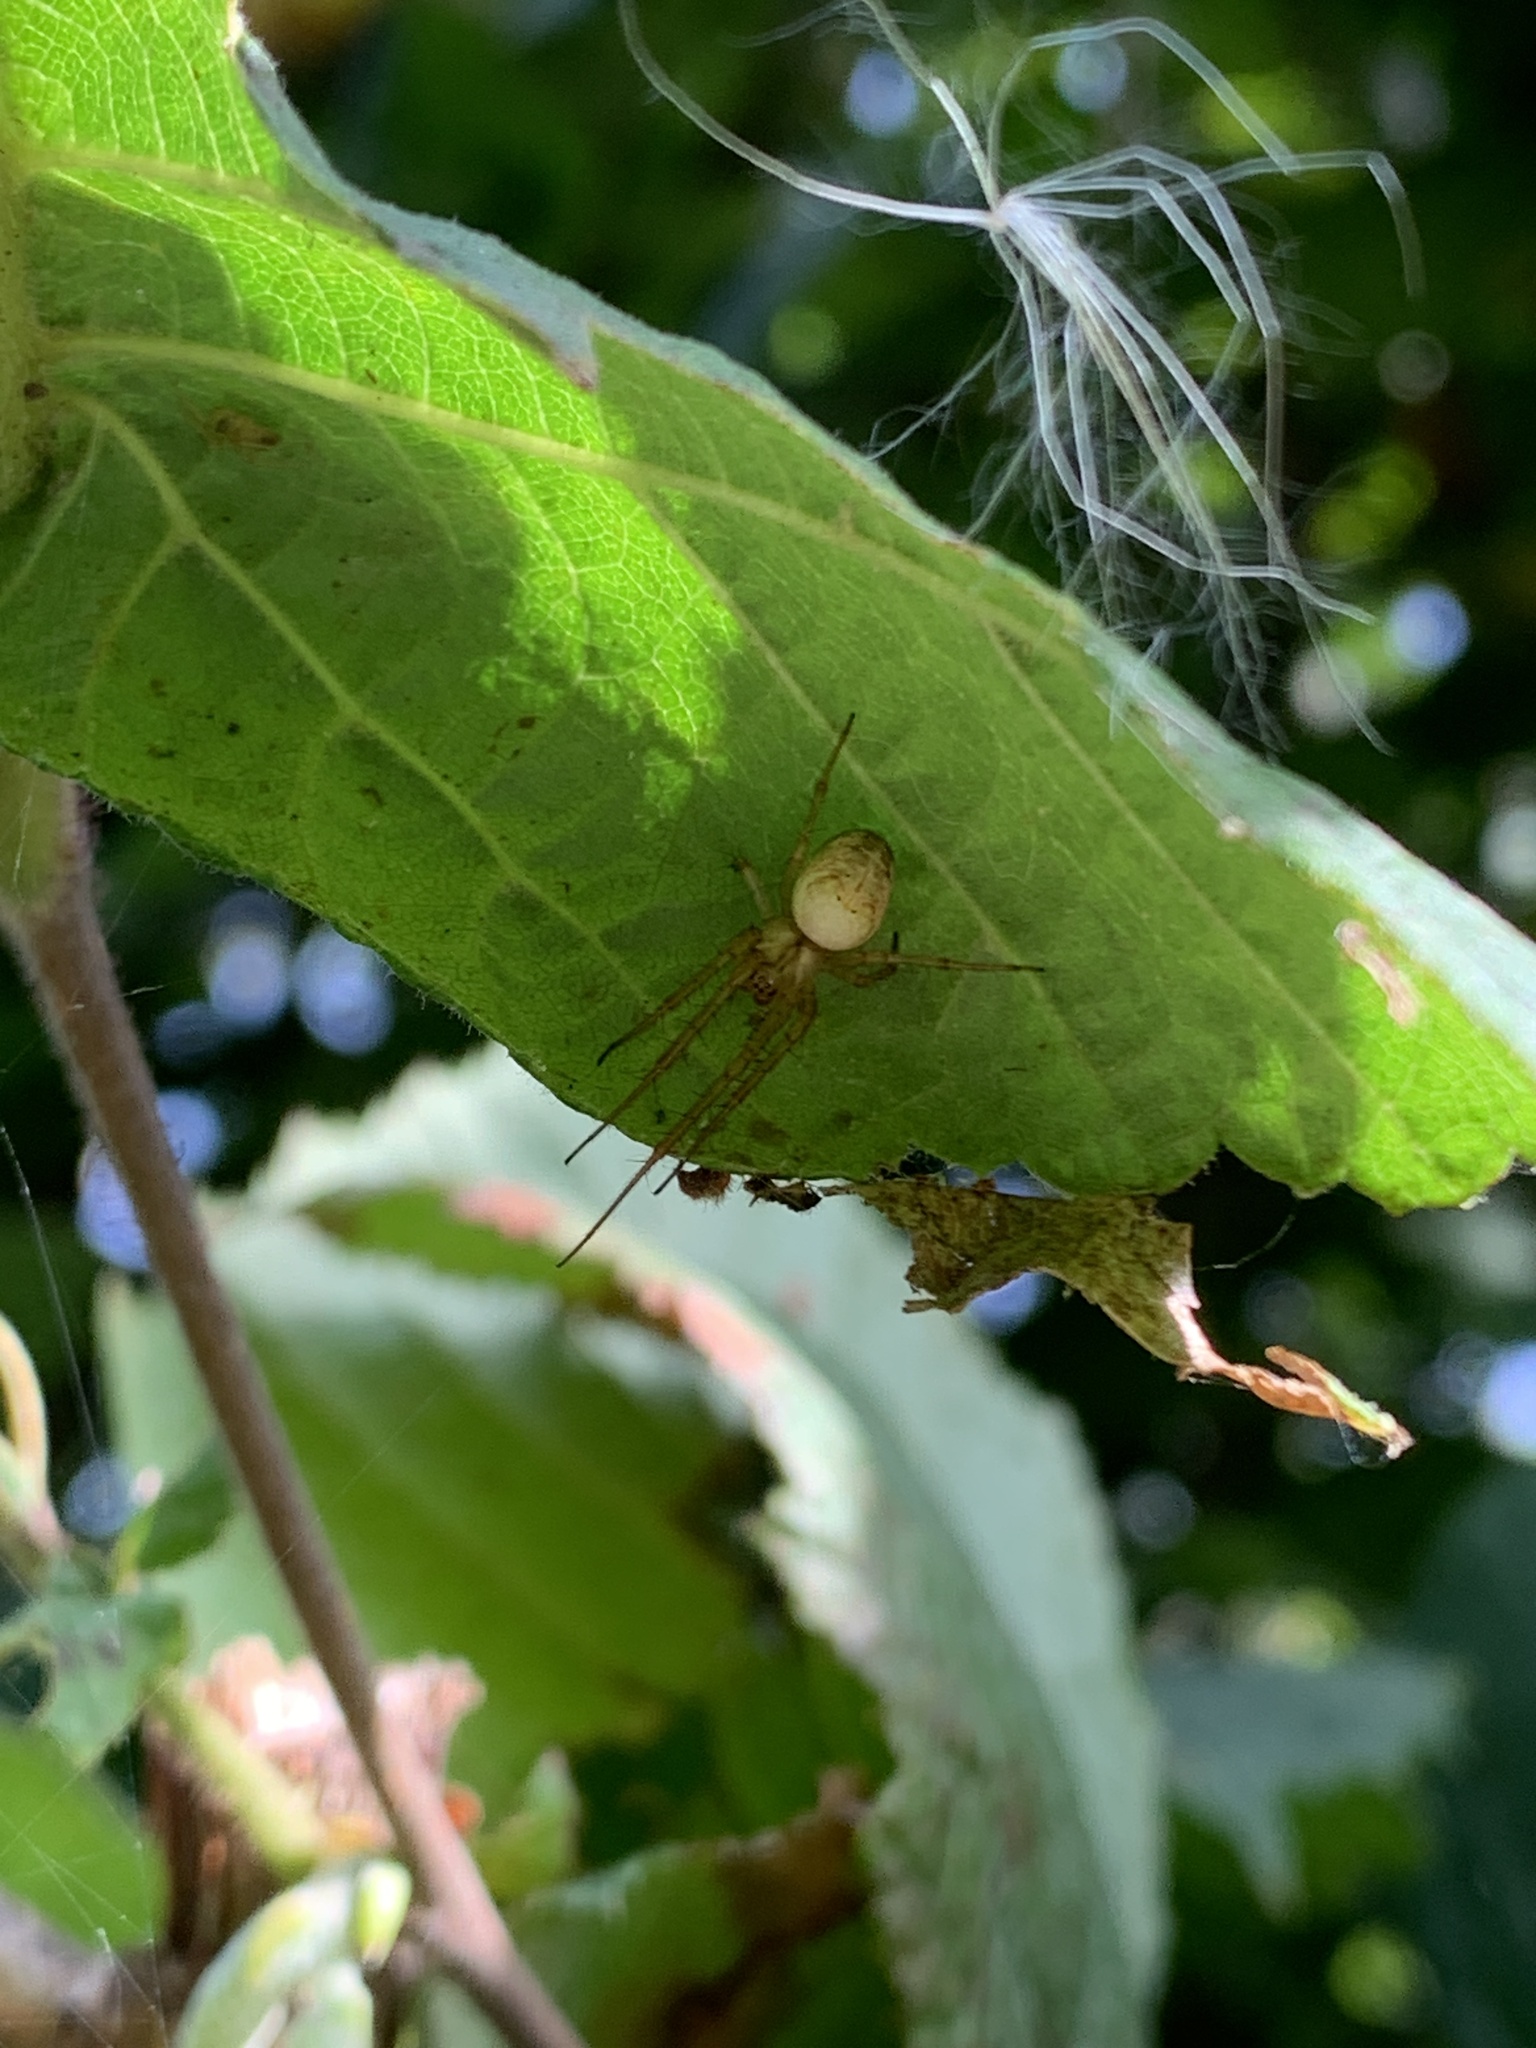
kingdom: Animalia
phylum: Arthropoda
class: Arachnida
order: Araneae
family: Tetragnathidae
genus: Metellina
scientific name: Metellina
